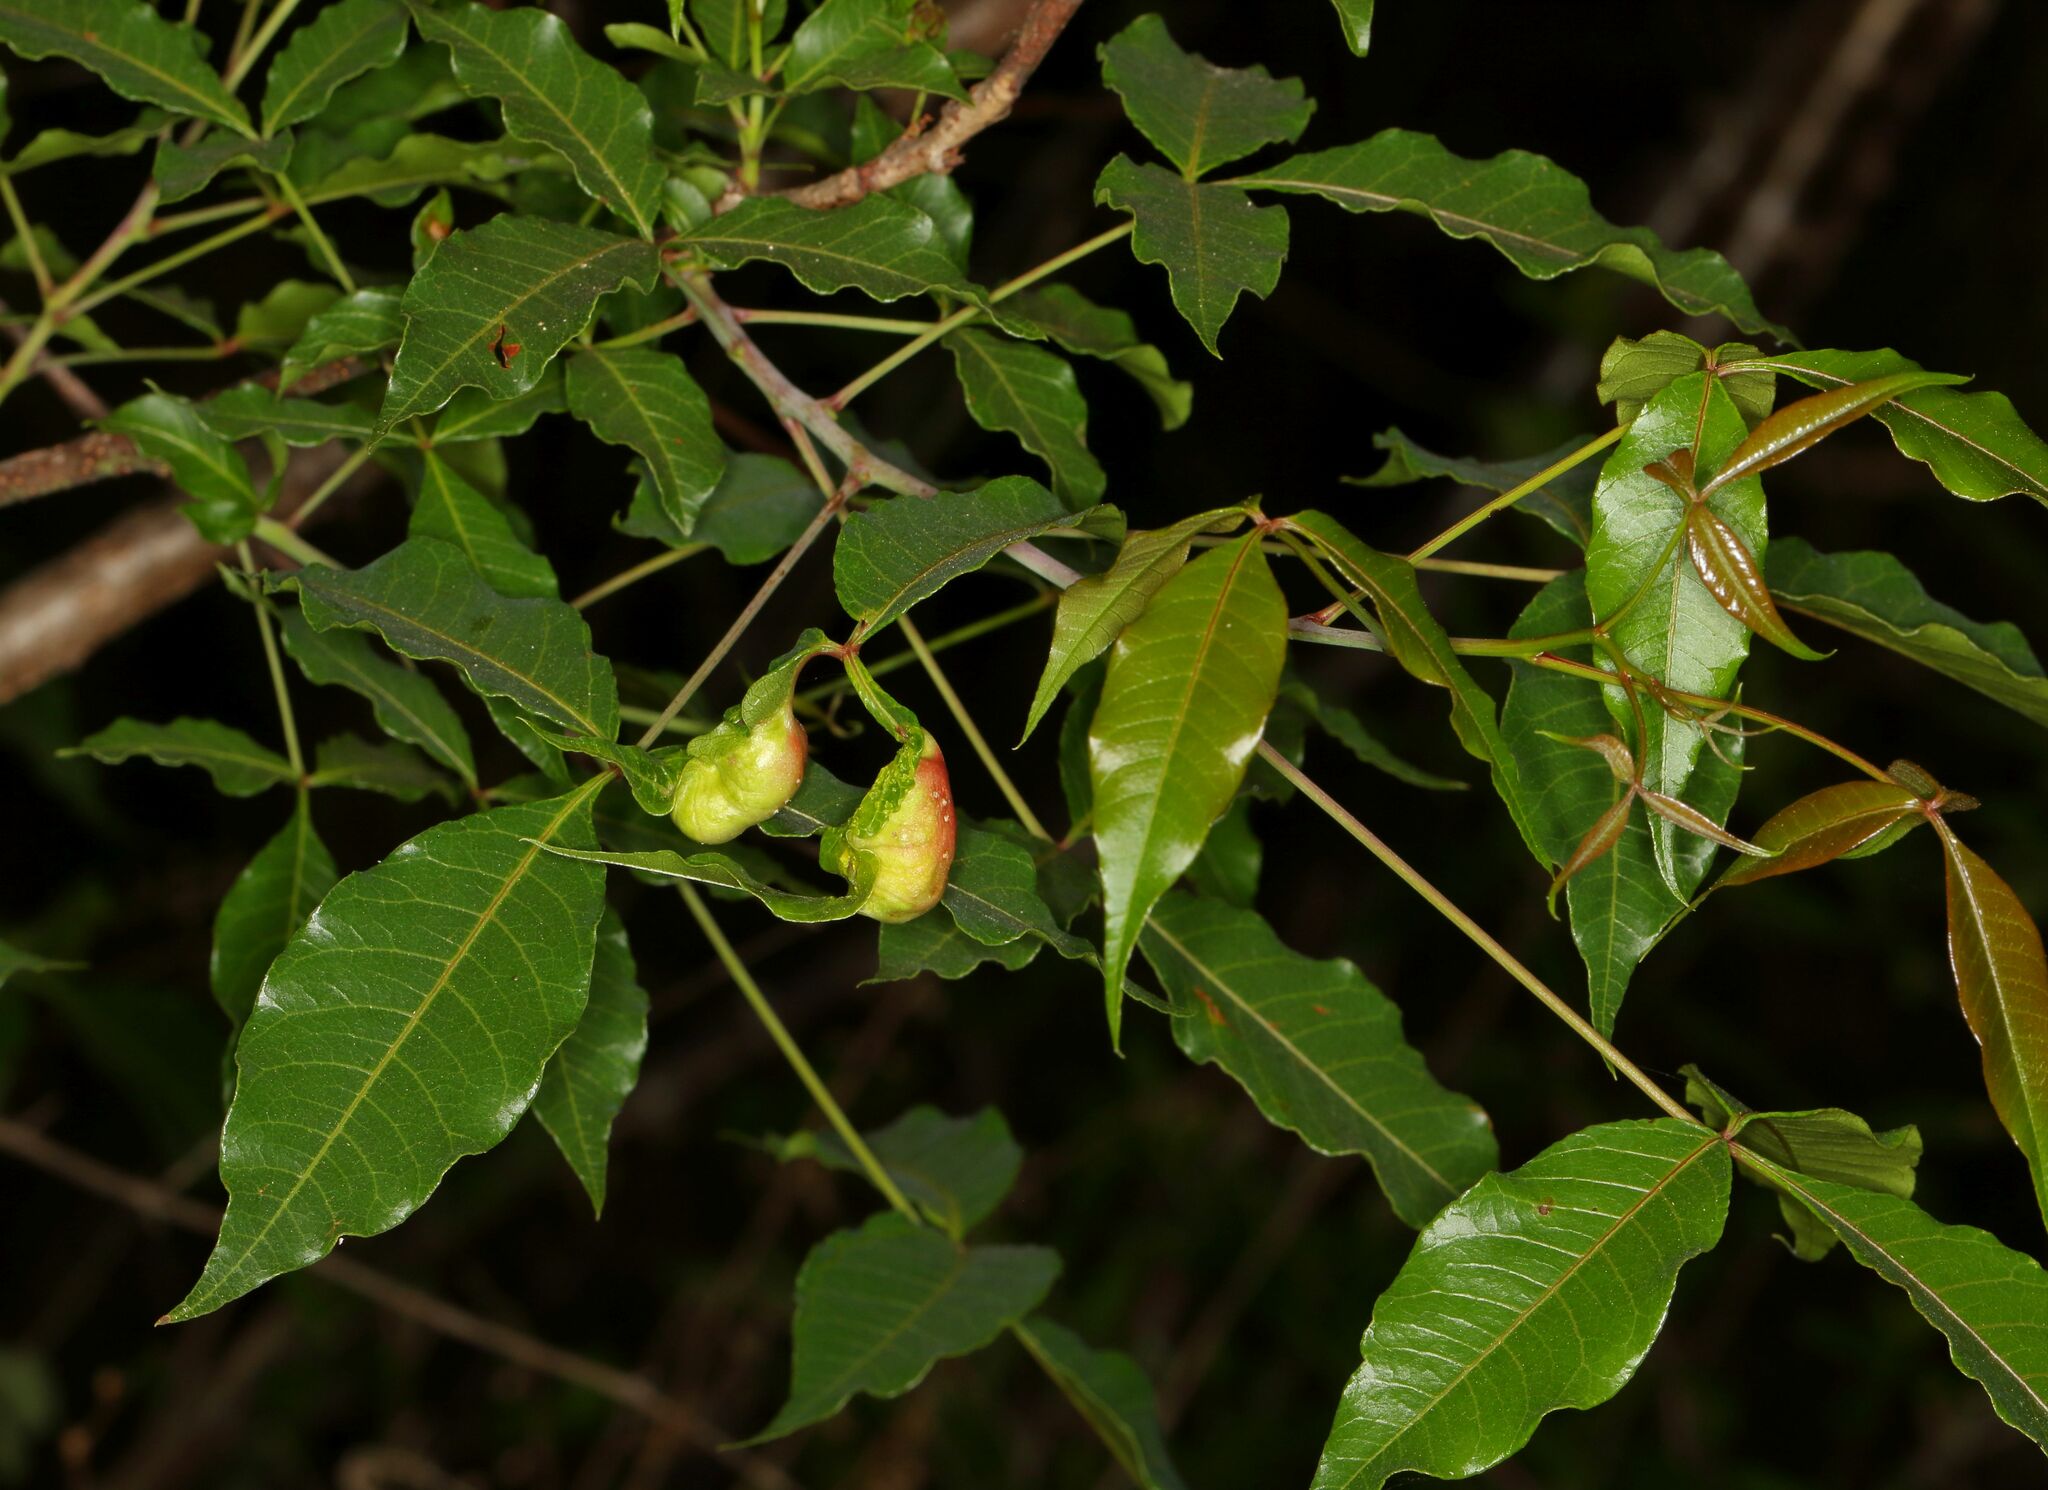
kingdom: Plantae
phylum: Tracheophyta
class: Magnoliopsida
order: Sapindales
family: Anacardiaceae
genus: Searsia
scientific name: Searsia chirindensis
